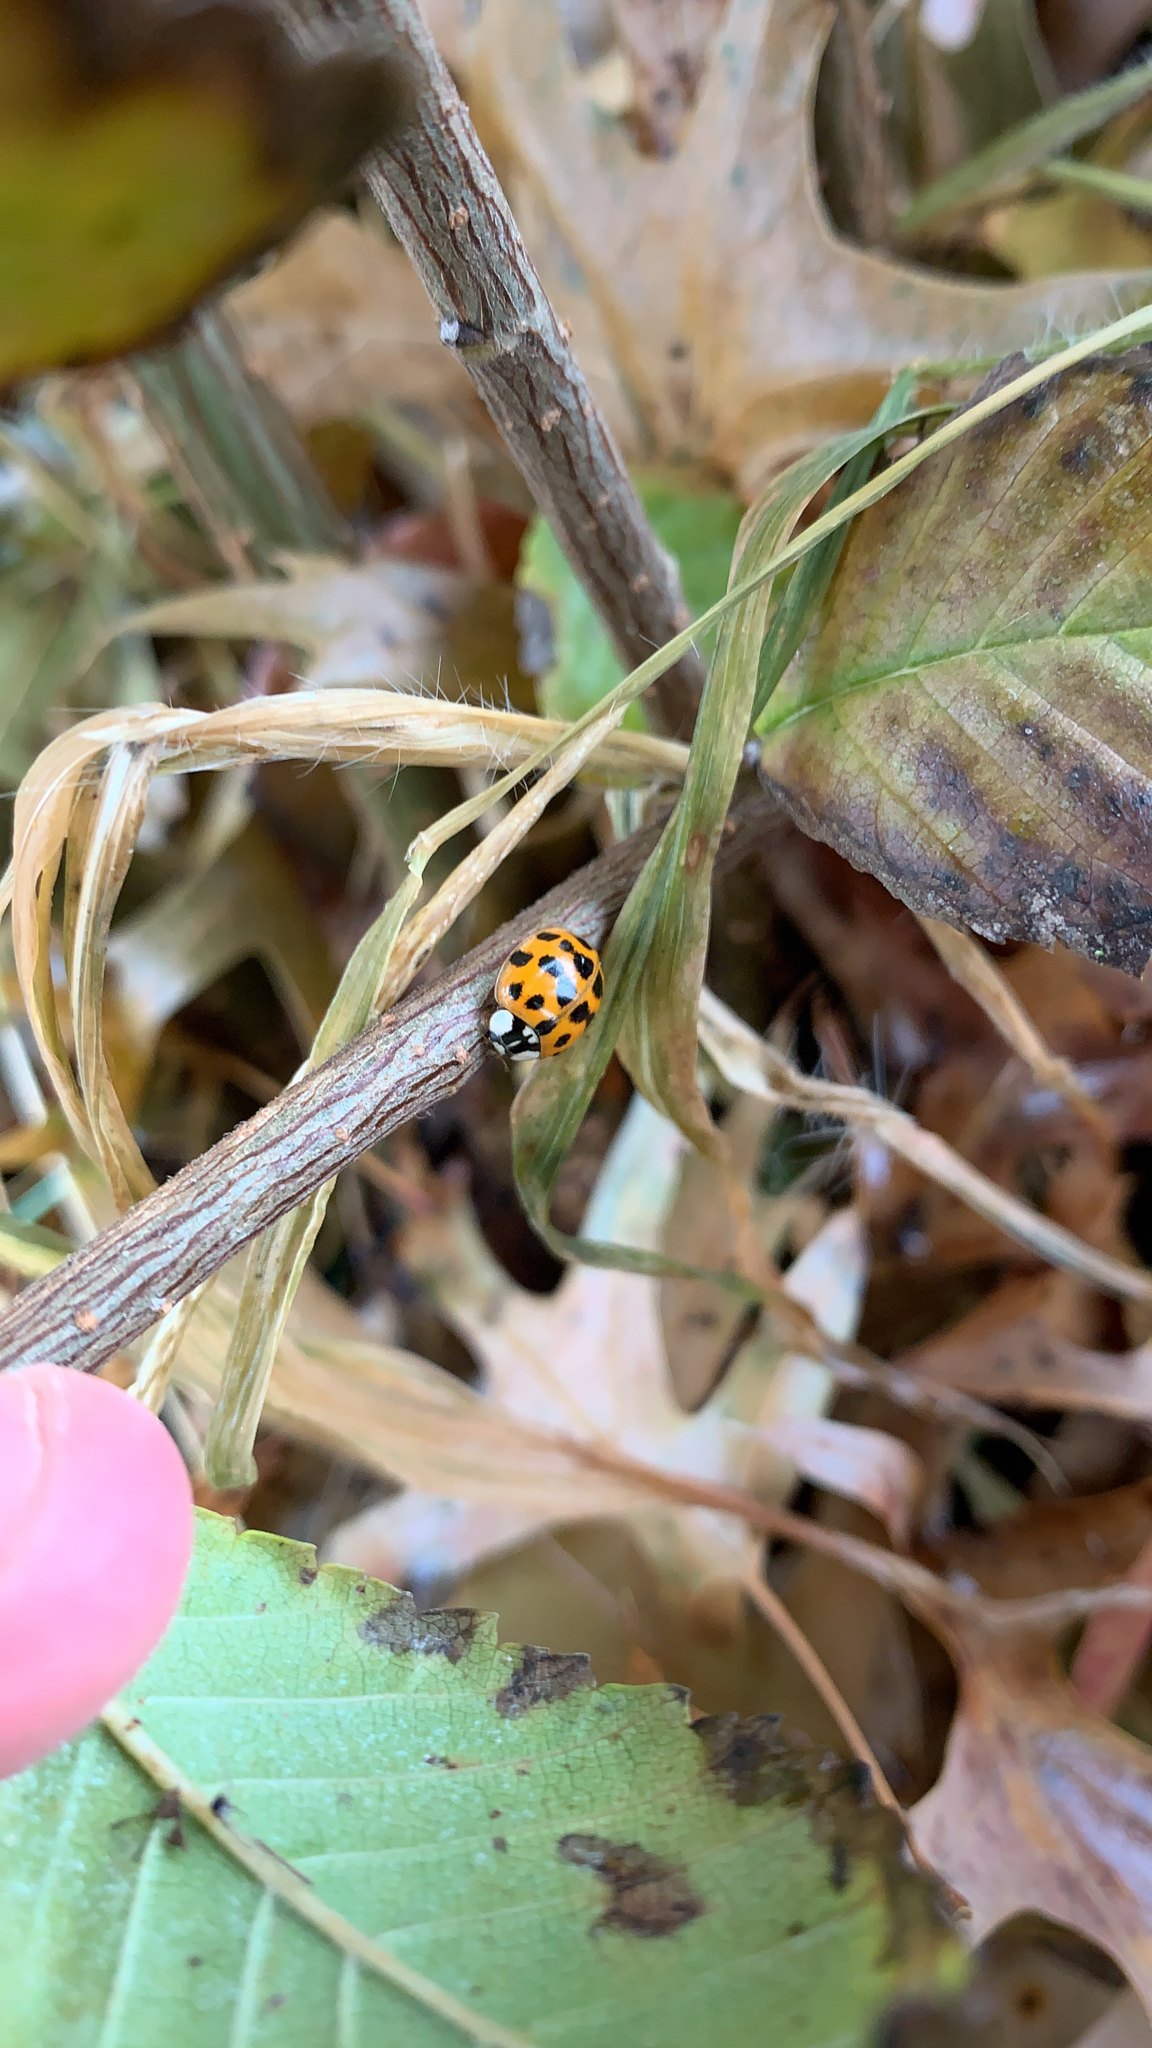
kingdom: Animalia
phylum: Arthropoda
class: Insecta
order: Coleoptera
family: Coccinellidae
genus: Harmonia
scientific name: Harmonia axyridis
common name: Harlequin ladybird
